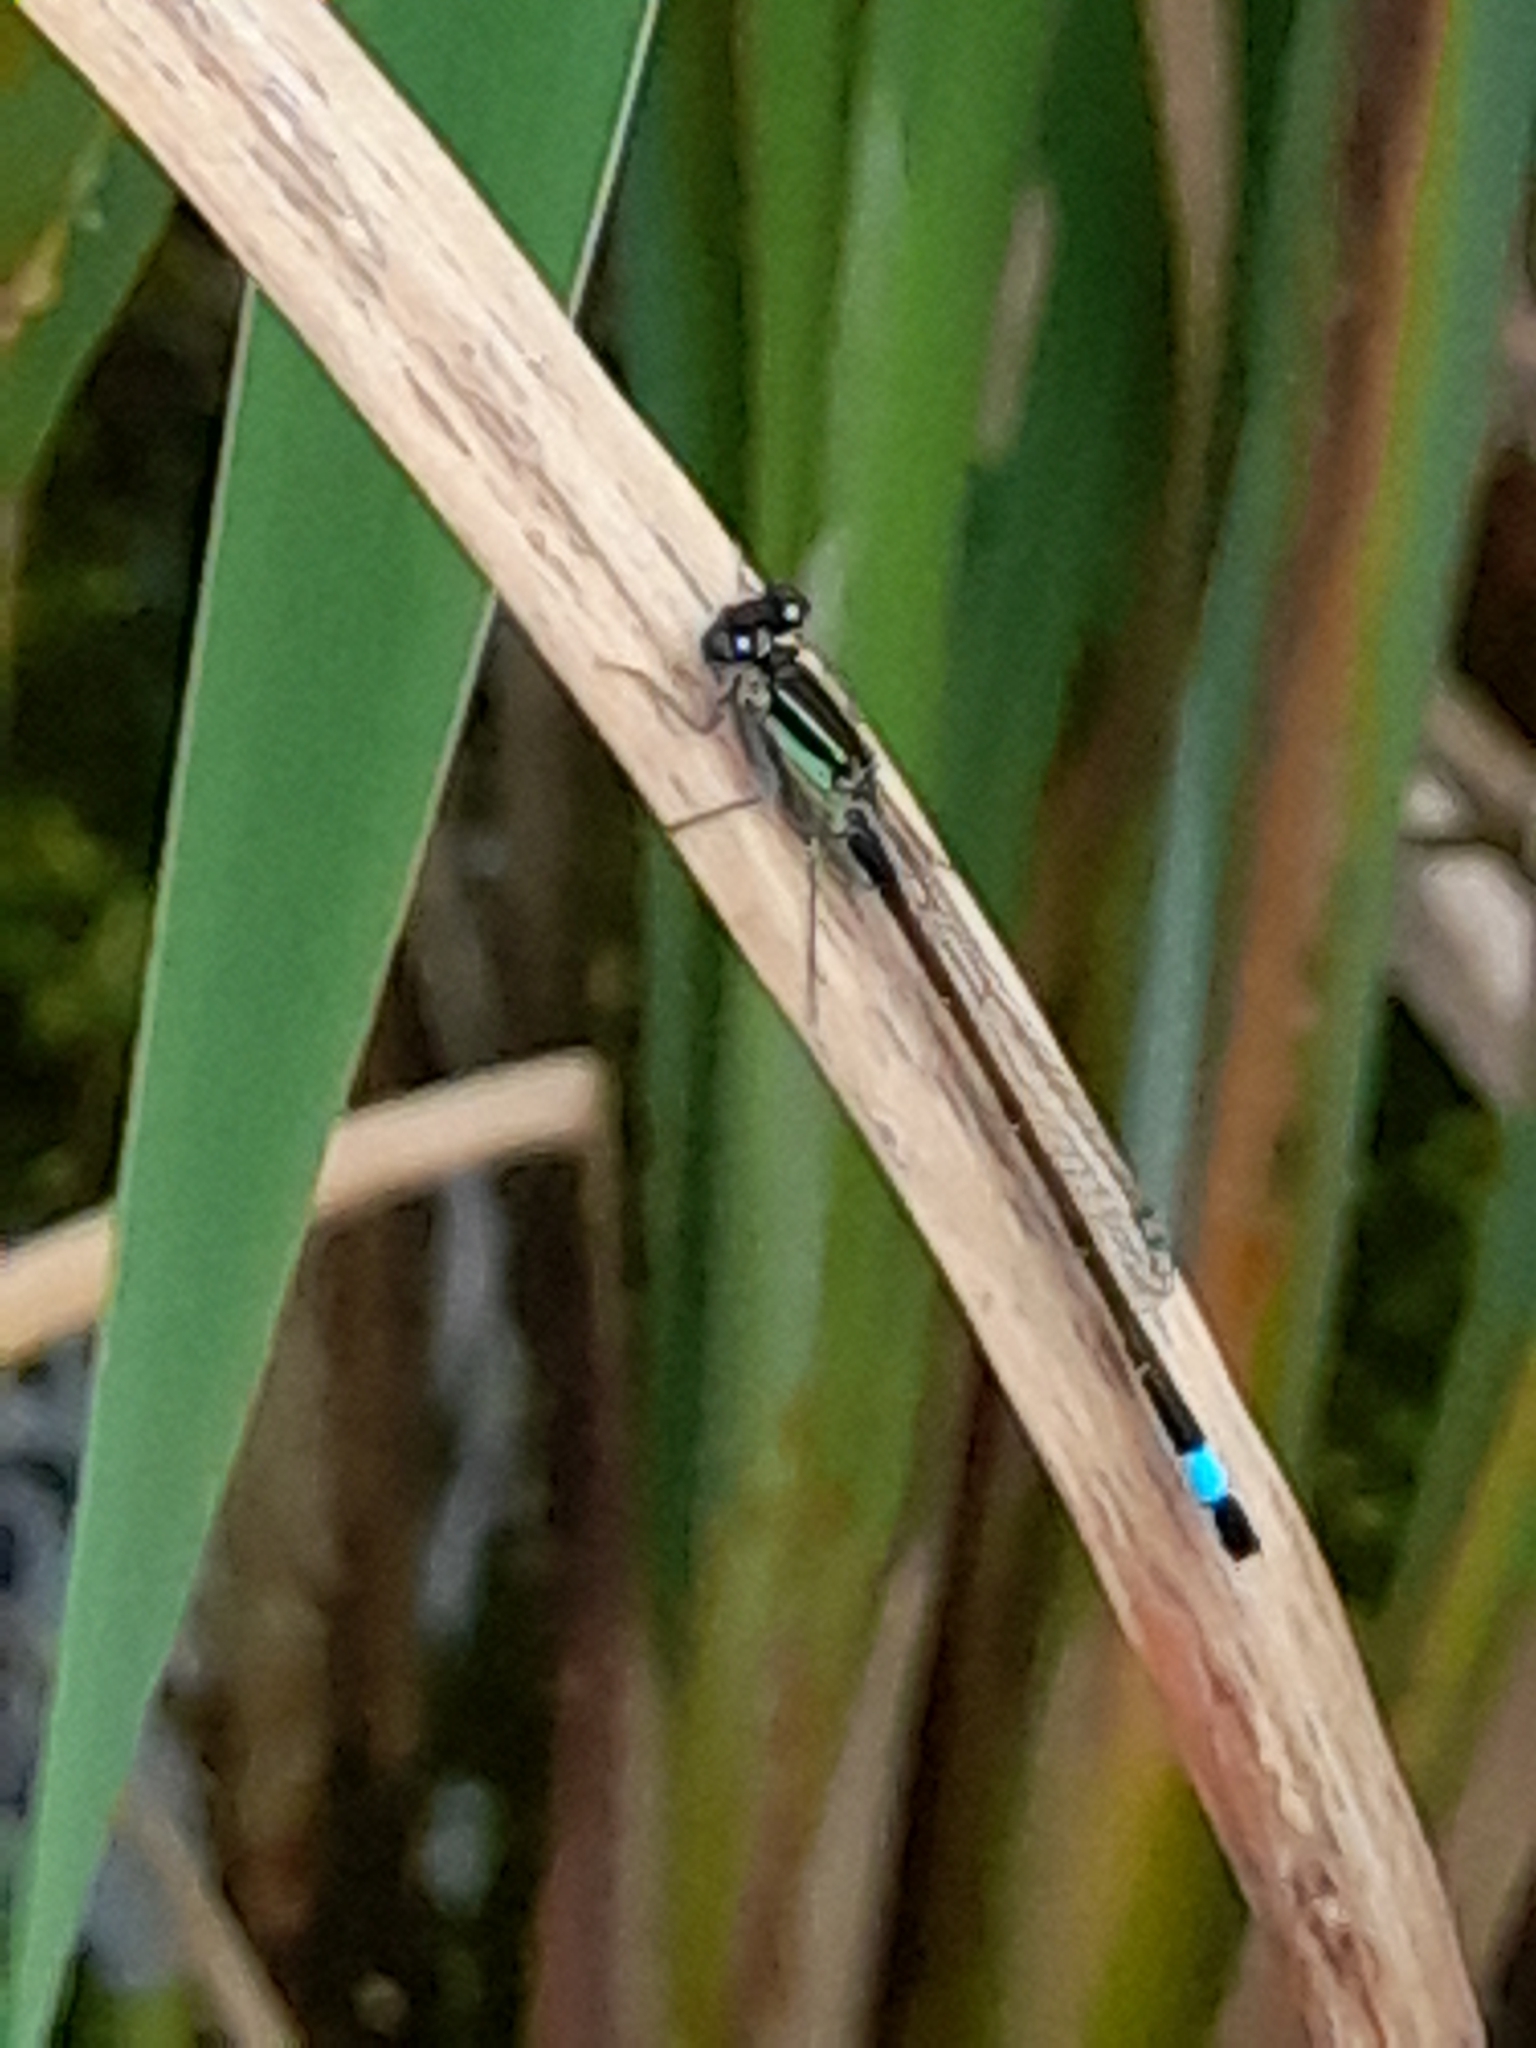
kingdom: Animalia
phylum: Arthropoda
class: Insecta
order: Odonata
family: Coenagrionidae
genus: Ischnura
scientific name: Ischnura elegans
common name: Blue-tailed damselfly
